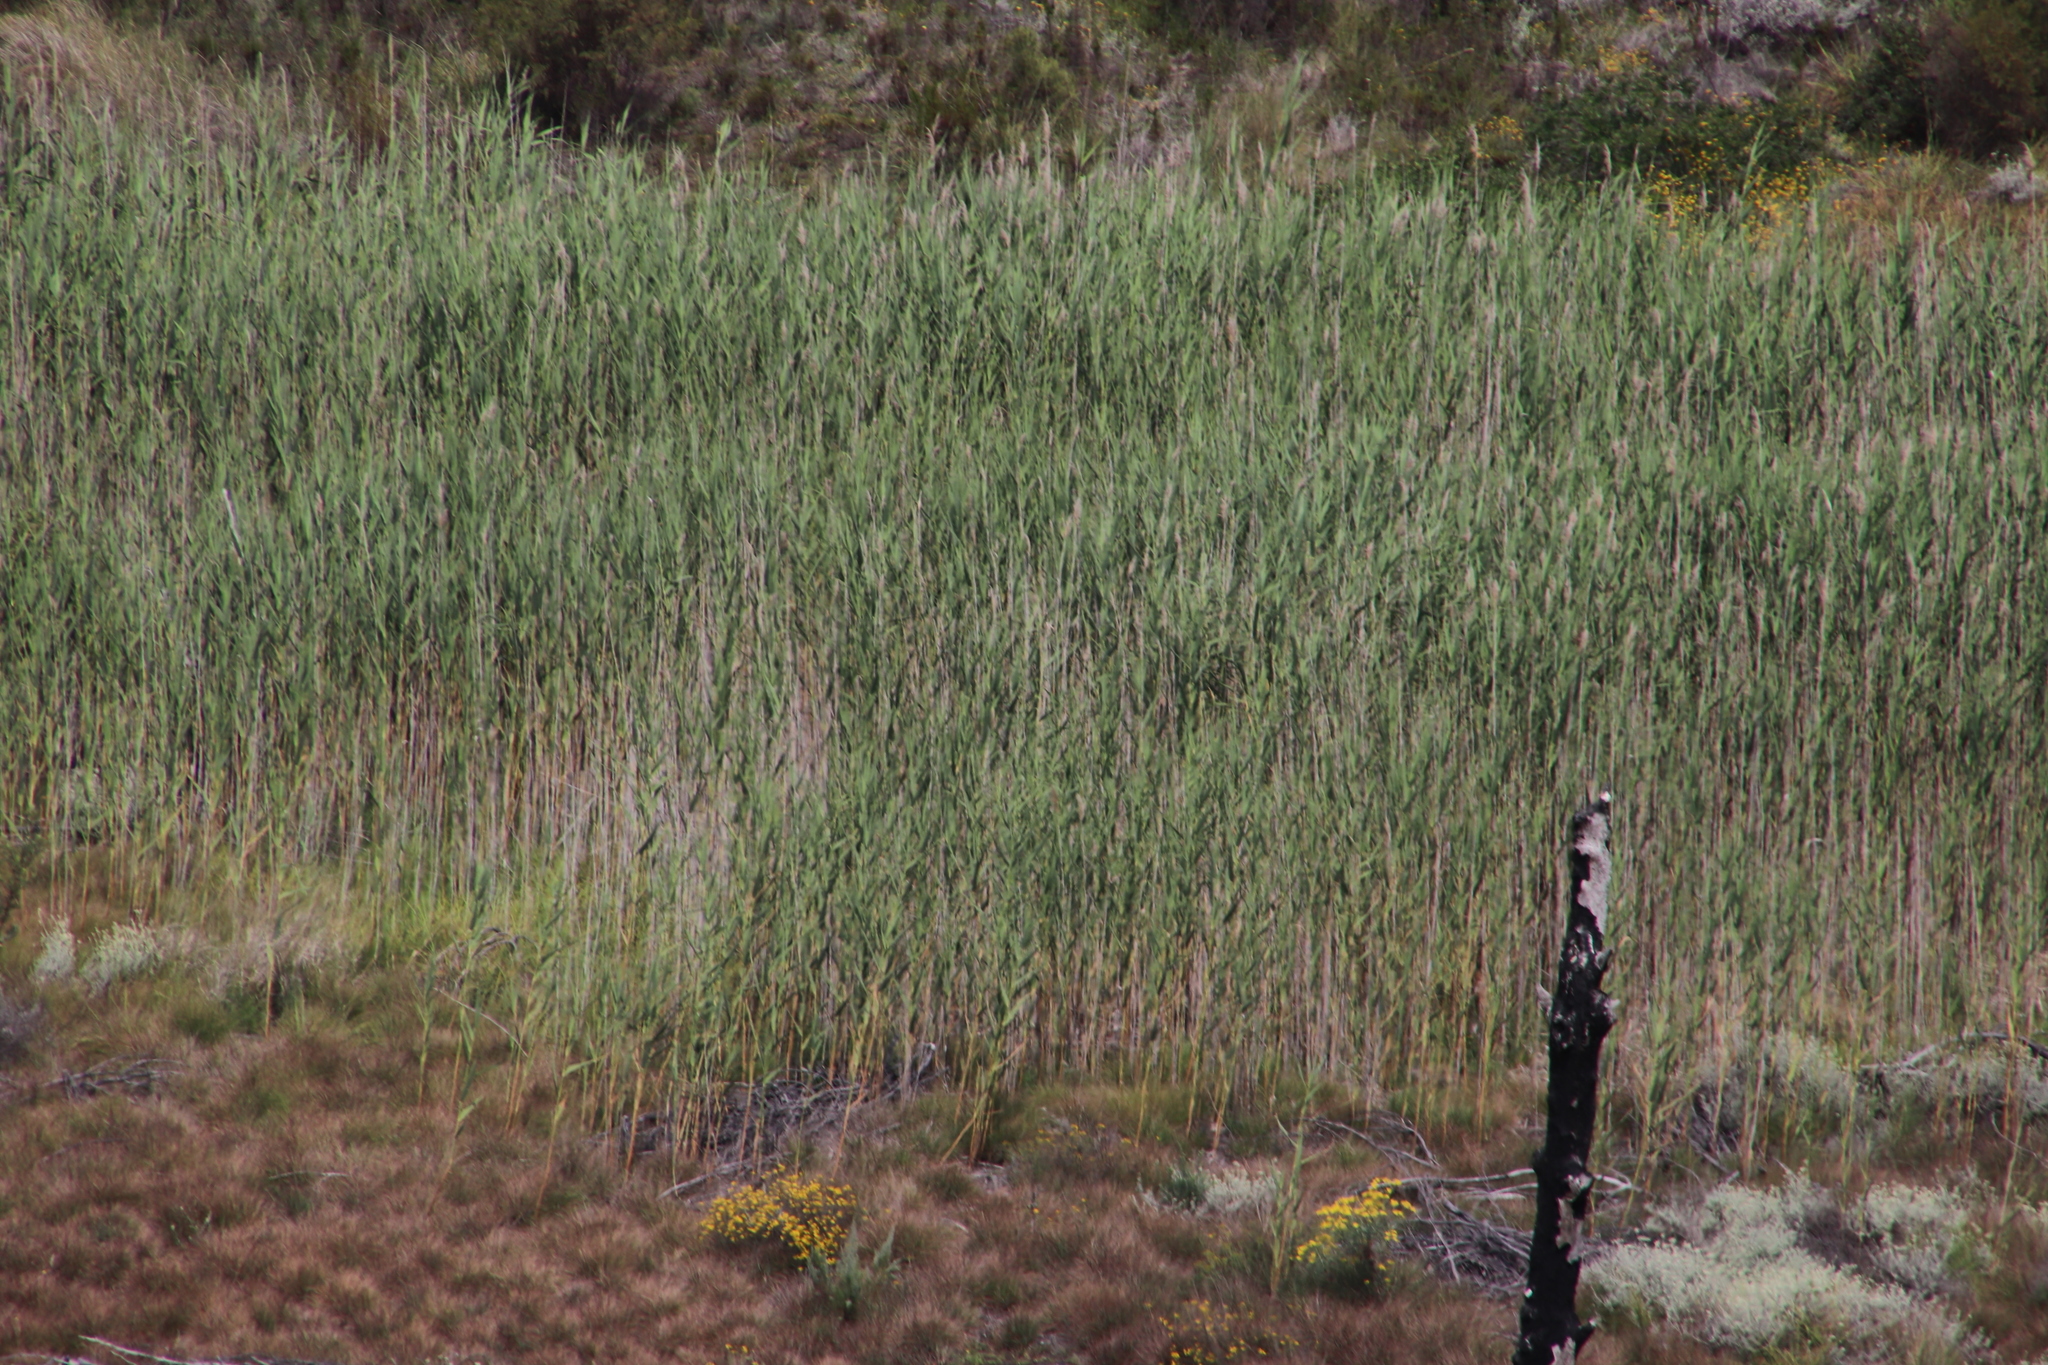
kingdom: Plantae
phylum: Tracheophyta
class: Liliopsida
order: Poales
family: Poaceae
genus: Phragmites
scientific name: Phragmites australis
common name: Common reed
